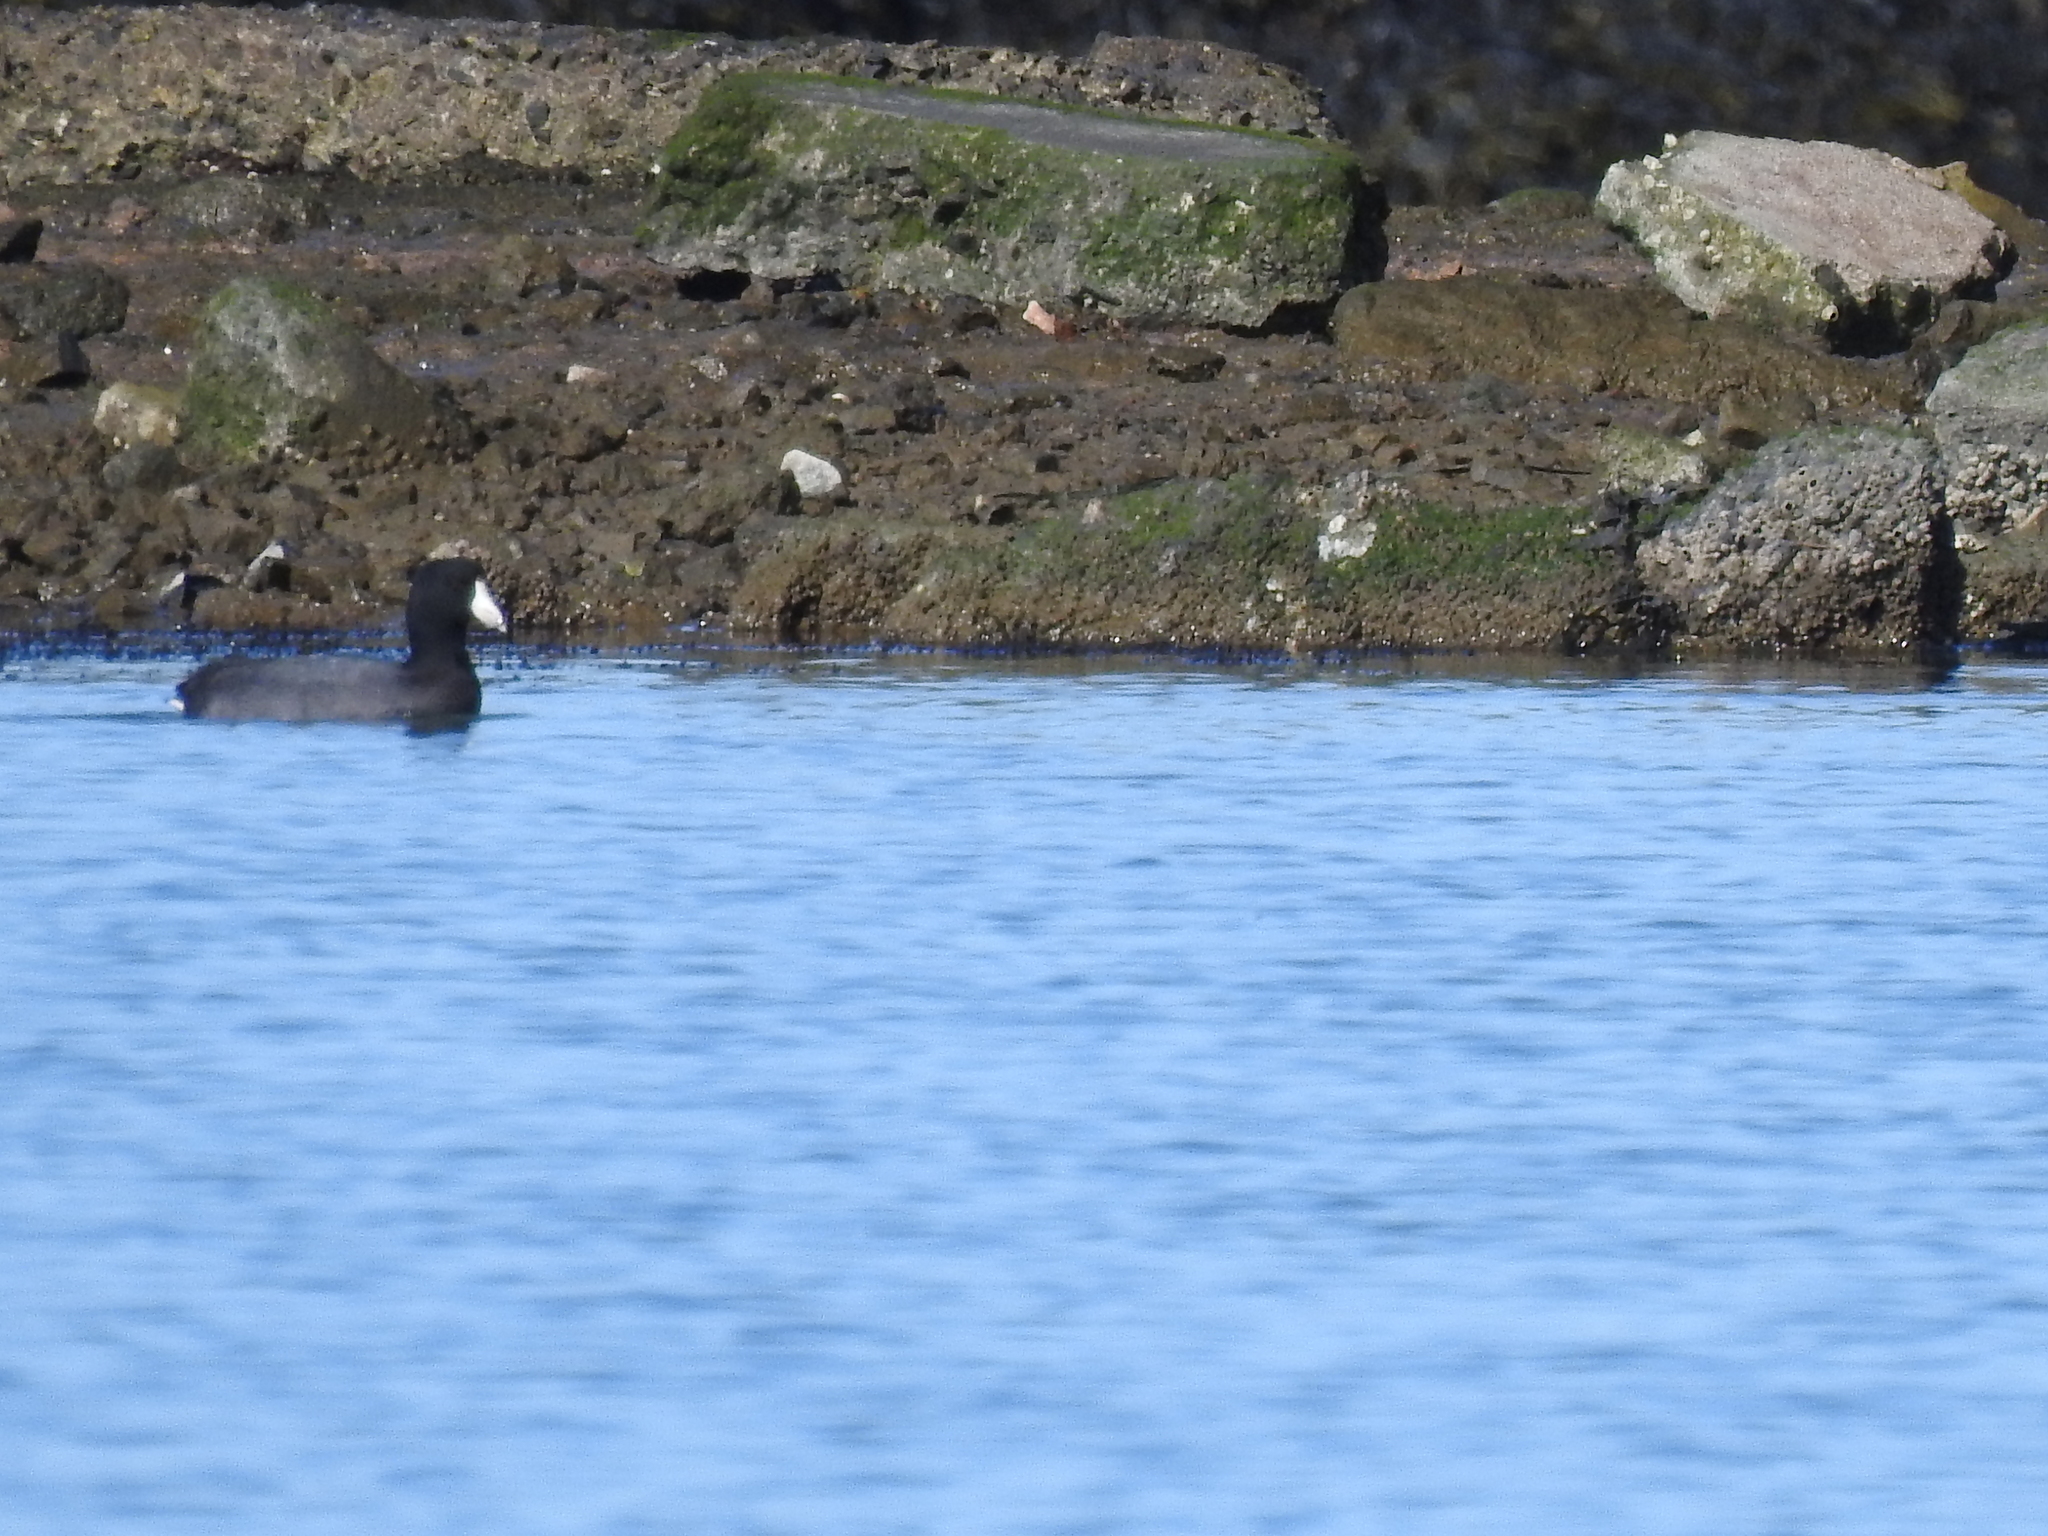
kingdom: Animalia
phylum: Chordata
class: Aves
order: Gruiformes
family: Rallidae
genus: Fulica
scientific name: Fulica americana
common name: American coot
